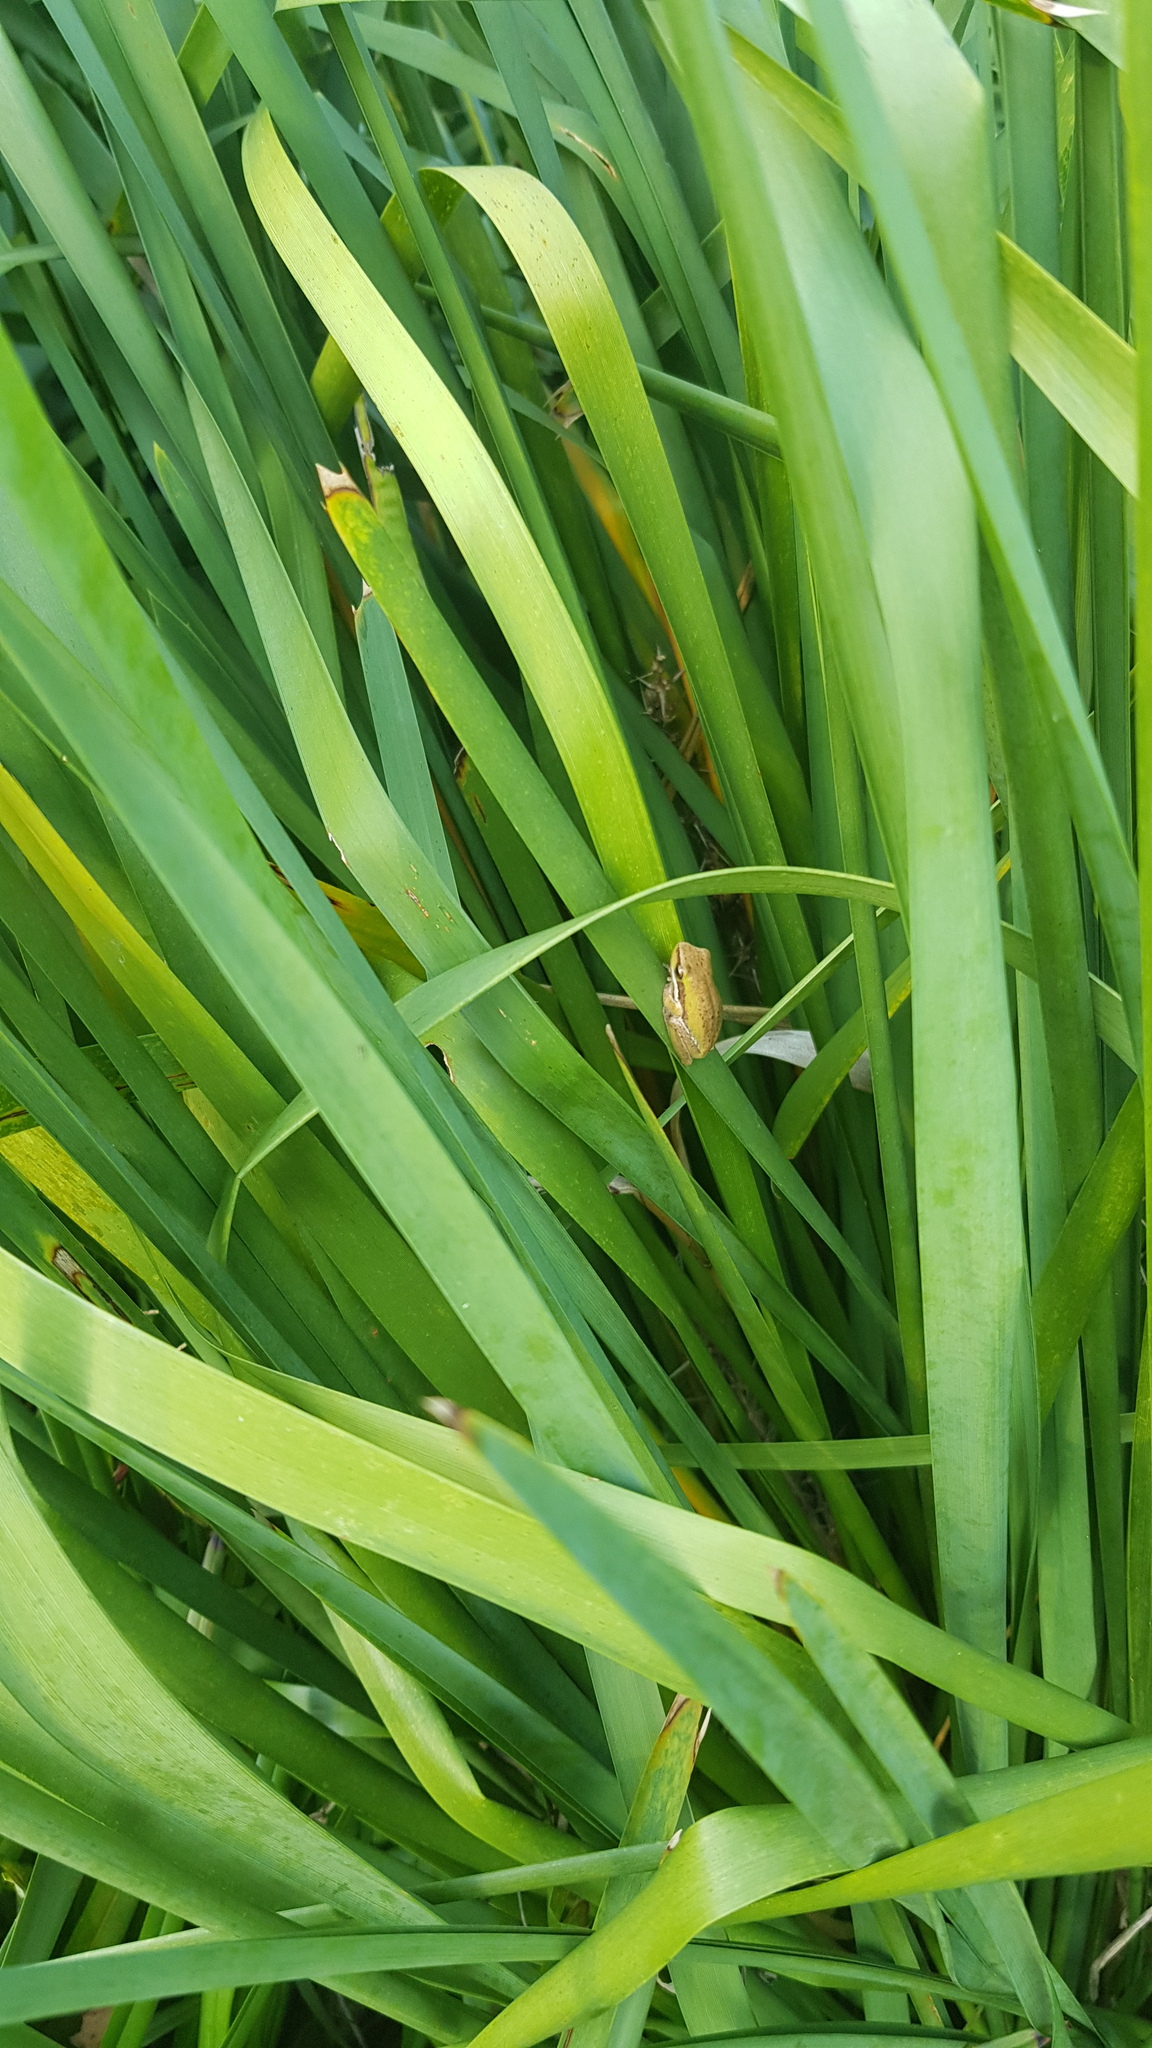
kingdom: Animalia
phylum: Chordata
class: Amphibia
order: Anura
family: Pelodryadidae
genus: Litoria
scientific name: Litoria fallax
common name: Eastern dwarf treefrog
